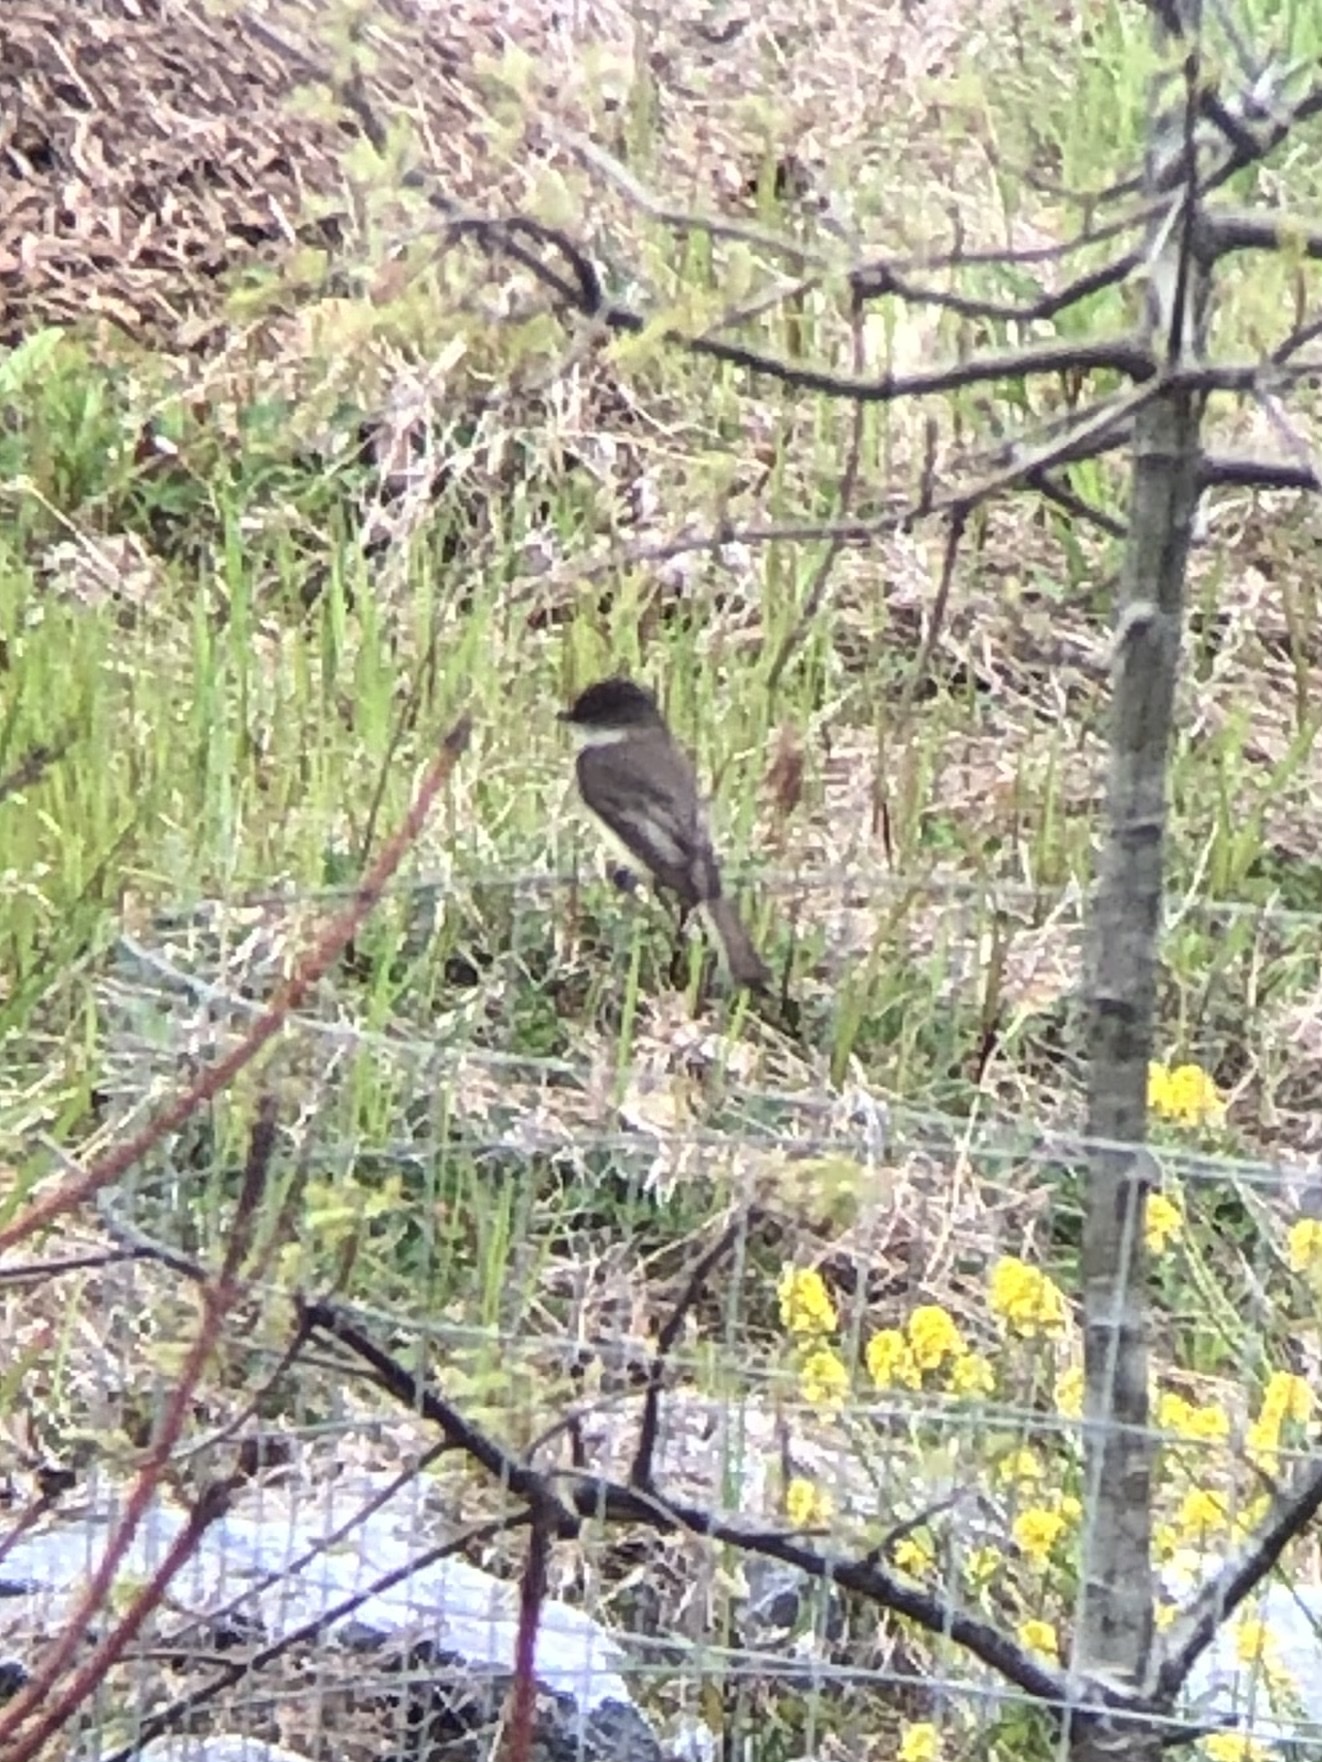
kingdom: Animalia
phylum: Chordata
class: Aves
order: Passeriformes
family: Tyrannidae
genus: Sayornis
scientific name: Sayornis phoebe
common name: Eastern phoebe
